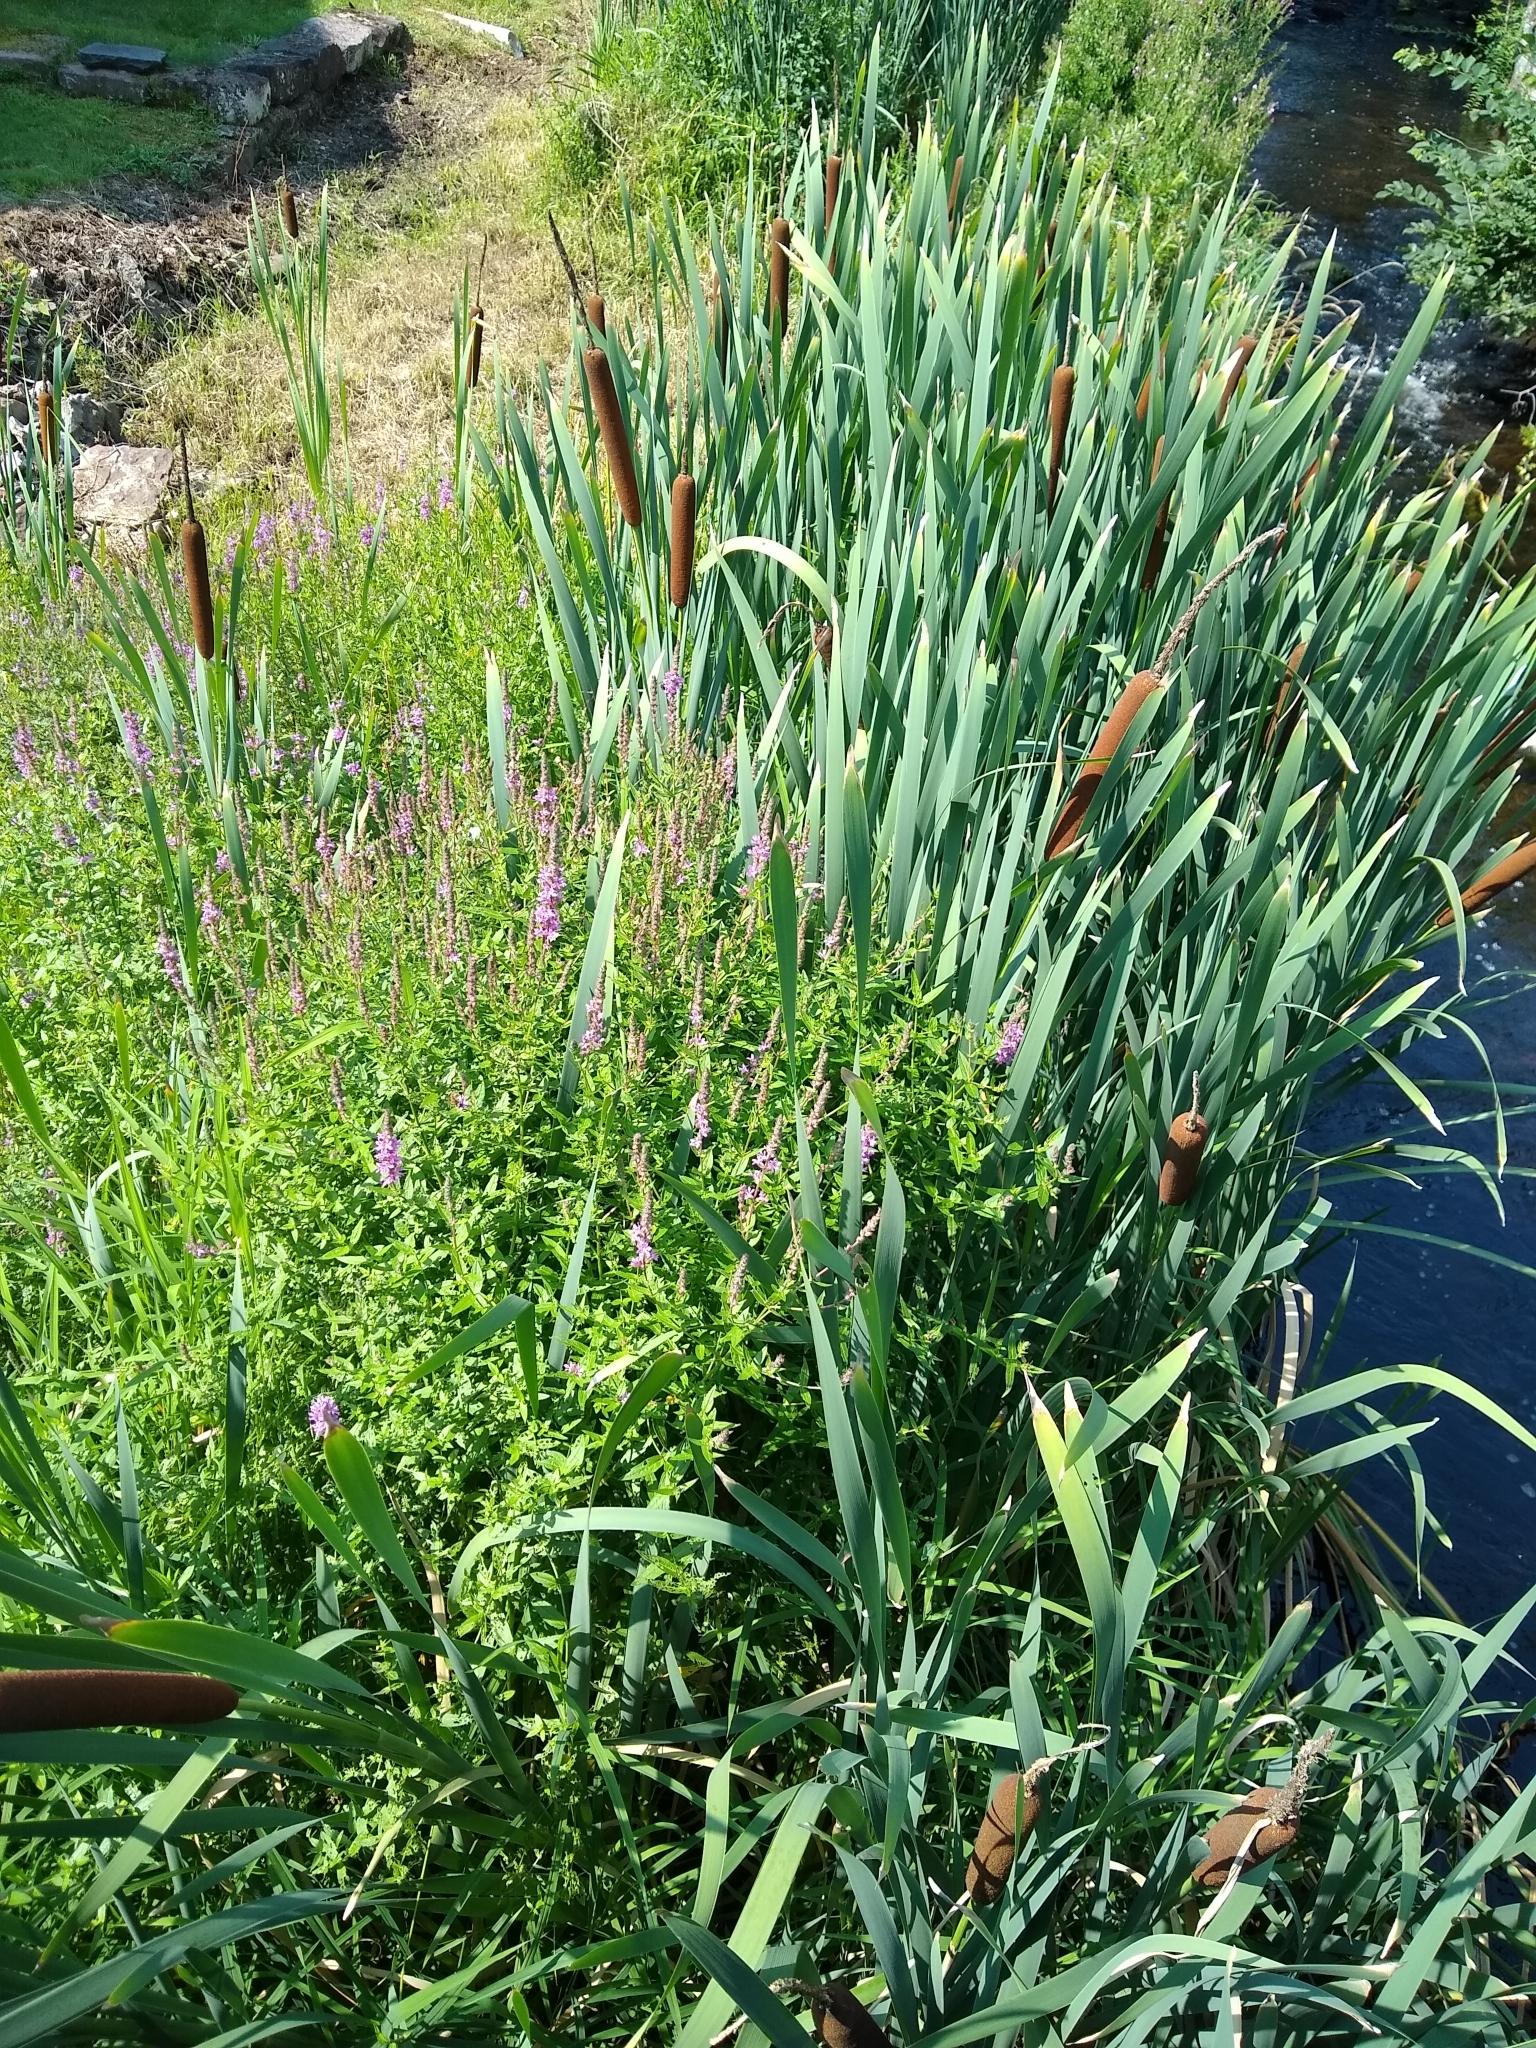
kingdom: Plantae
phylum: Tracheophyta
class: Liliopsida
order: Poales
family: Typhaceae
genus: Typha
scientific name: Typha latifolia
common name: Broadleaf cattail
